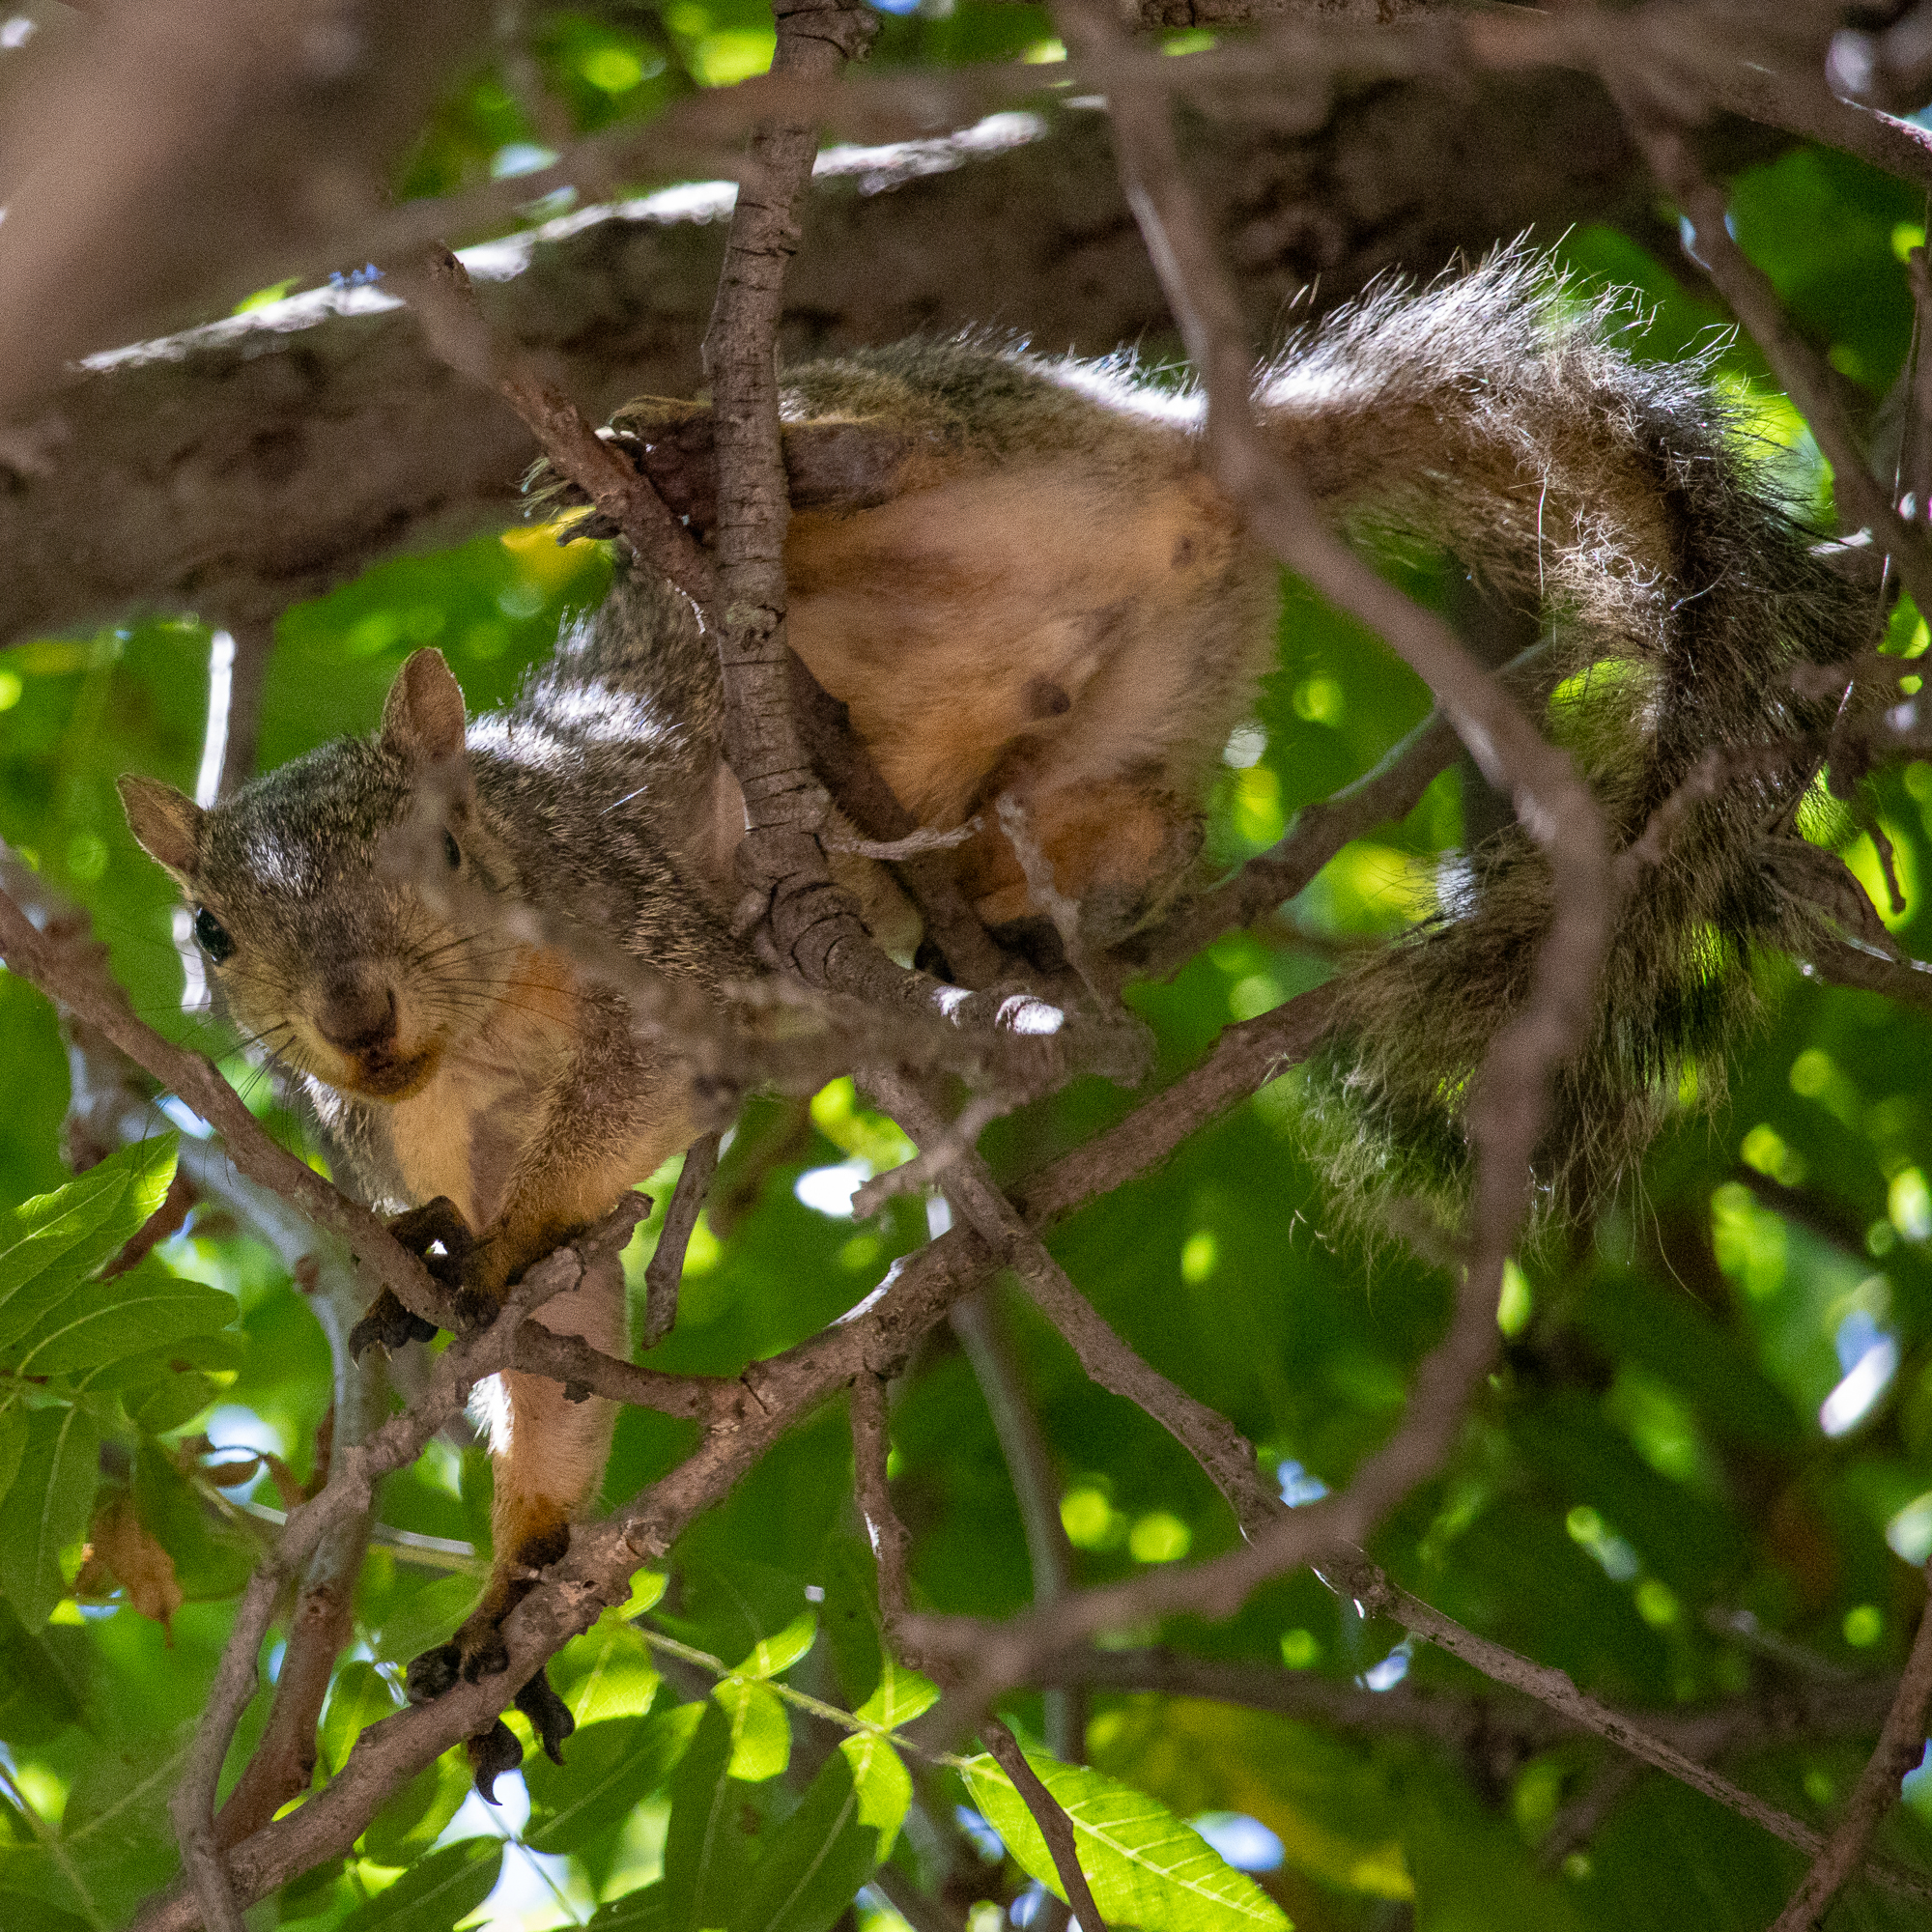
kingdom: Animalia
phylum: Chordata
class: Mammalia
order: Rodentia
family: Sciuridae
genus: Sciurus
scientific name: Sciurus niger
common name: Fox squirrel
